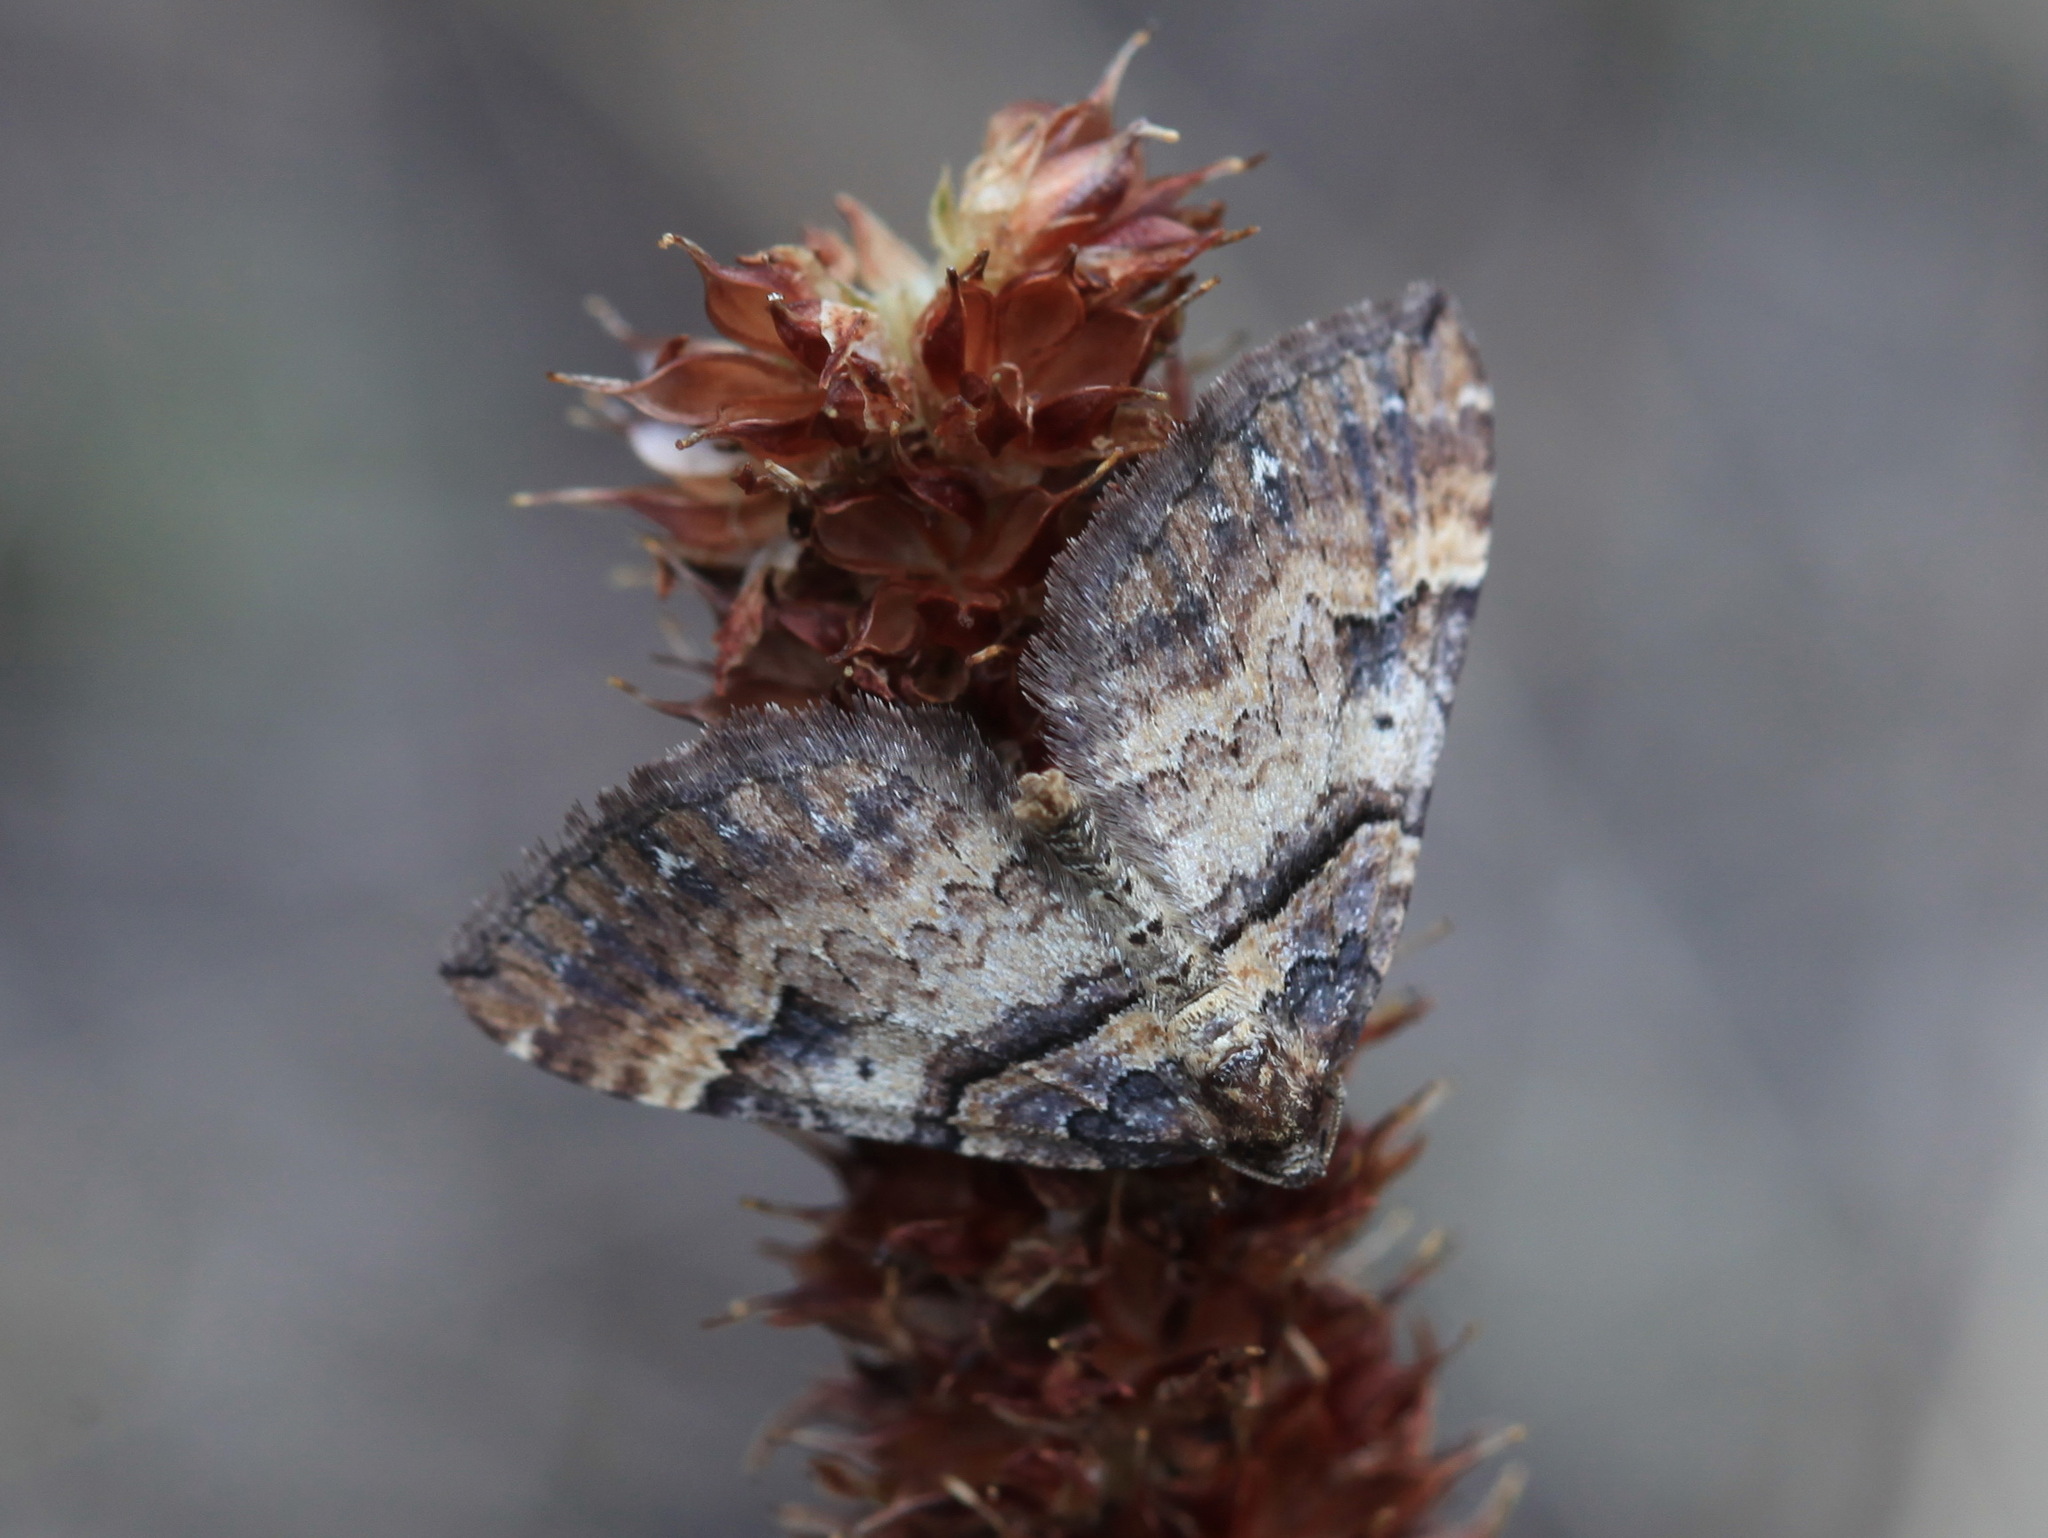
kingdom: Animalia
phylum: Arthropoda
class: Insecta
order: Lepidoptera
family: Geometridae
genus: Anticlea
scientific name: Anticlea badiata
